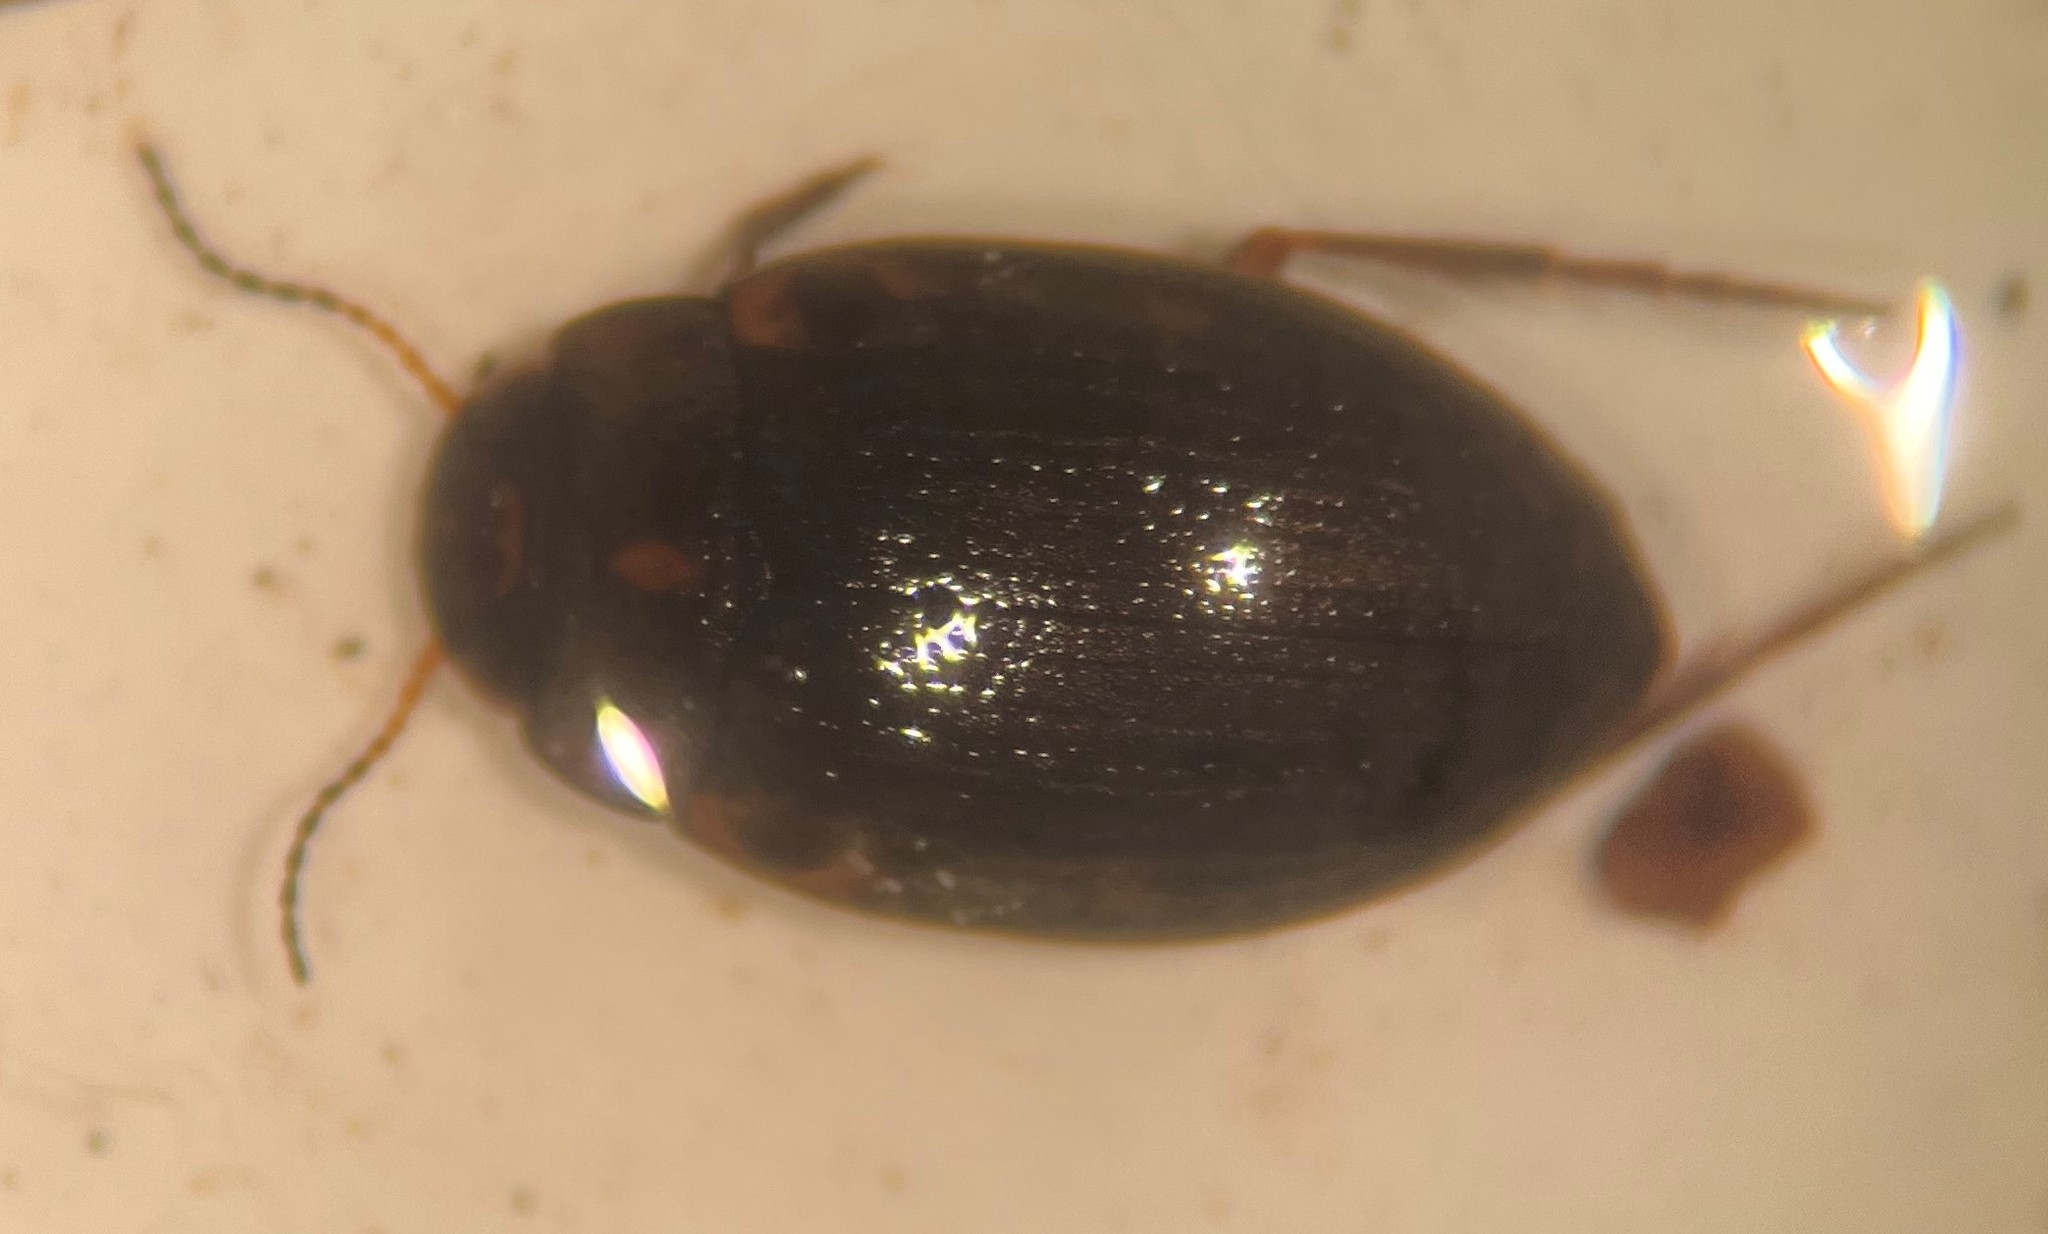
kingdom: Animalia
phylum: Arthropoda
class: Insecta
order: Coleoptera
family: Dytiscidae
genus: Leconectes
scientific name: Leconectes striatellus
